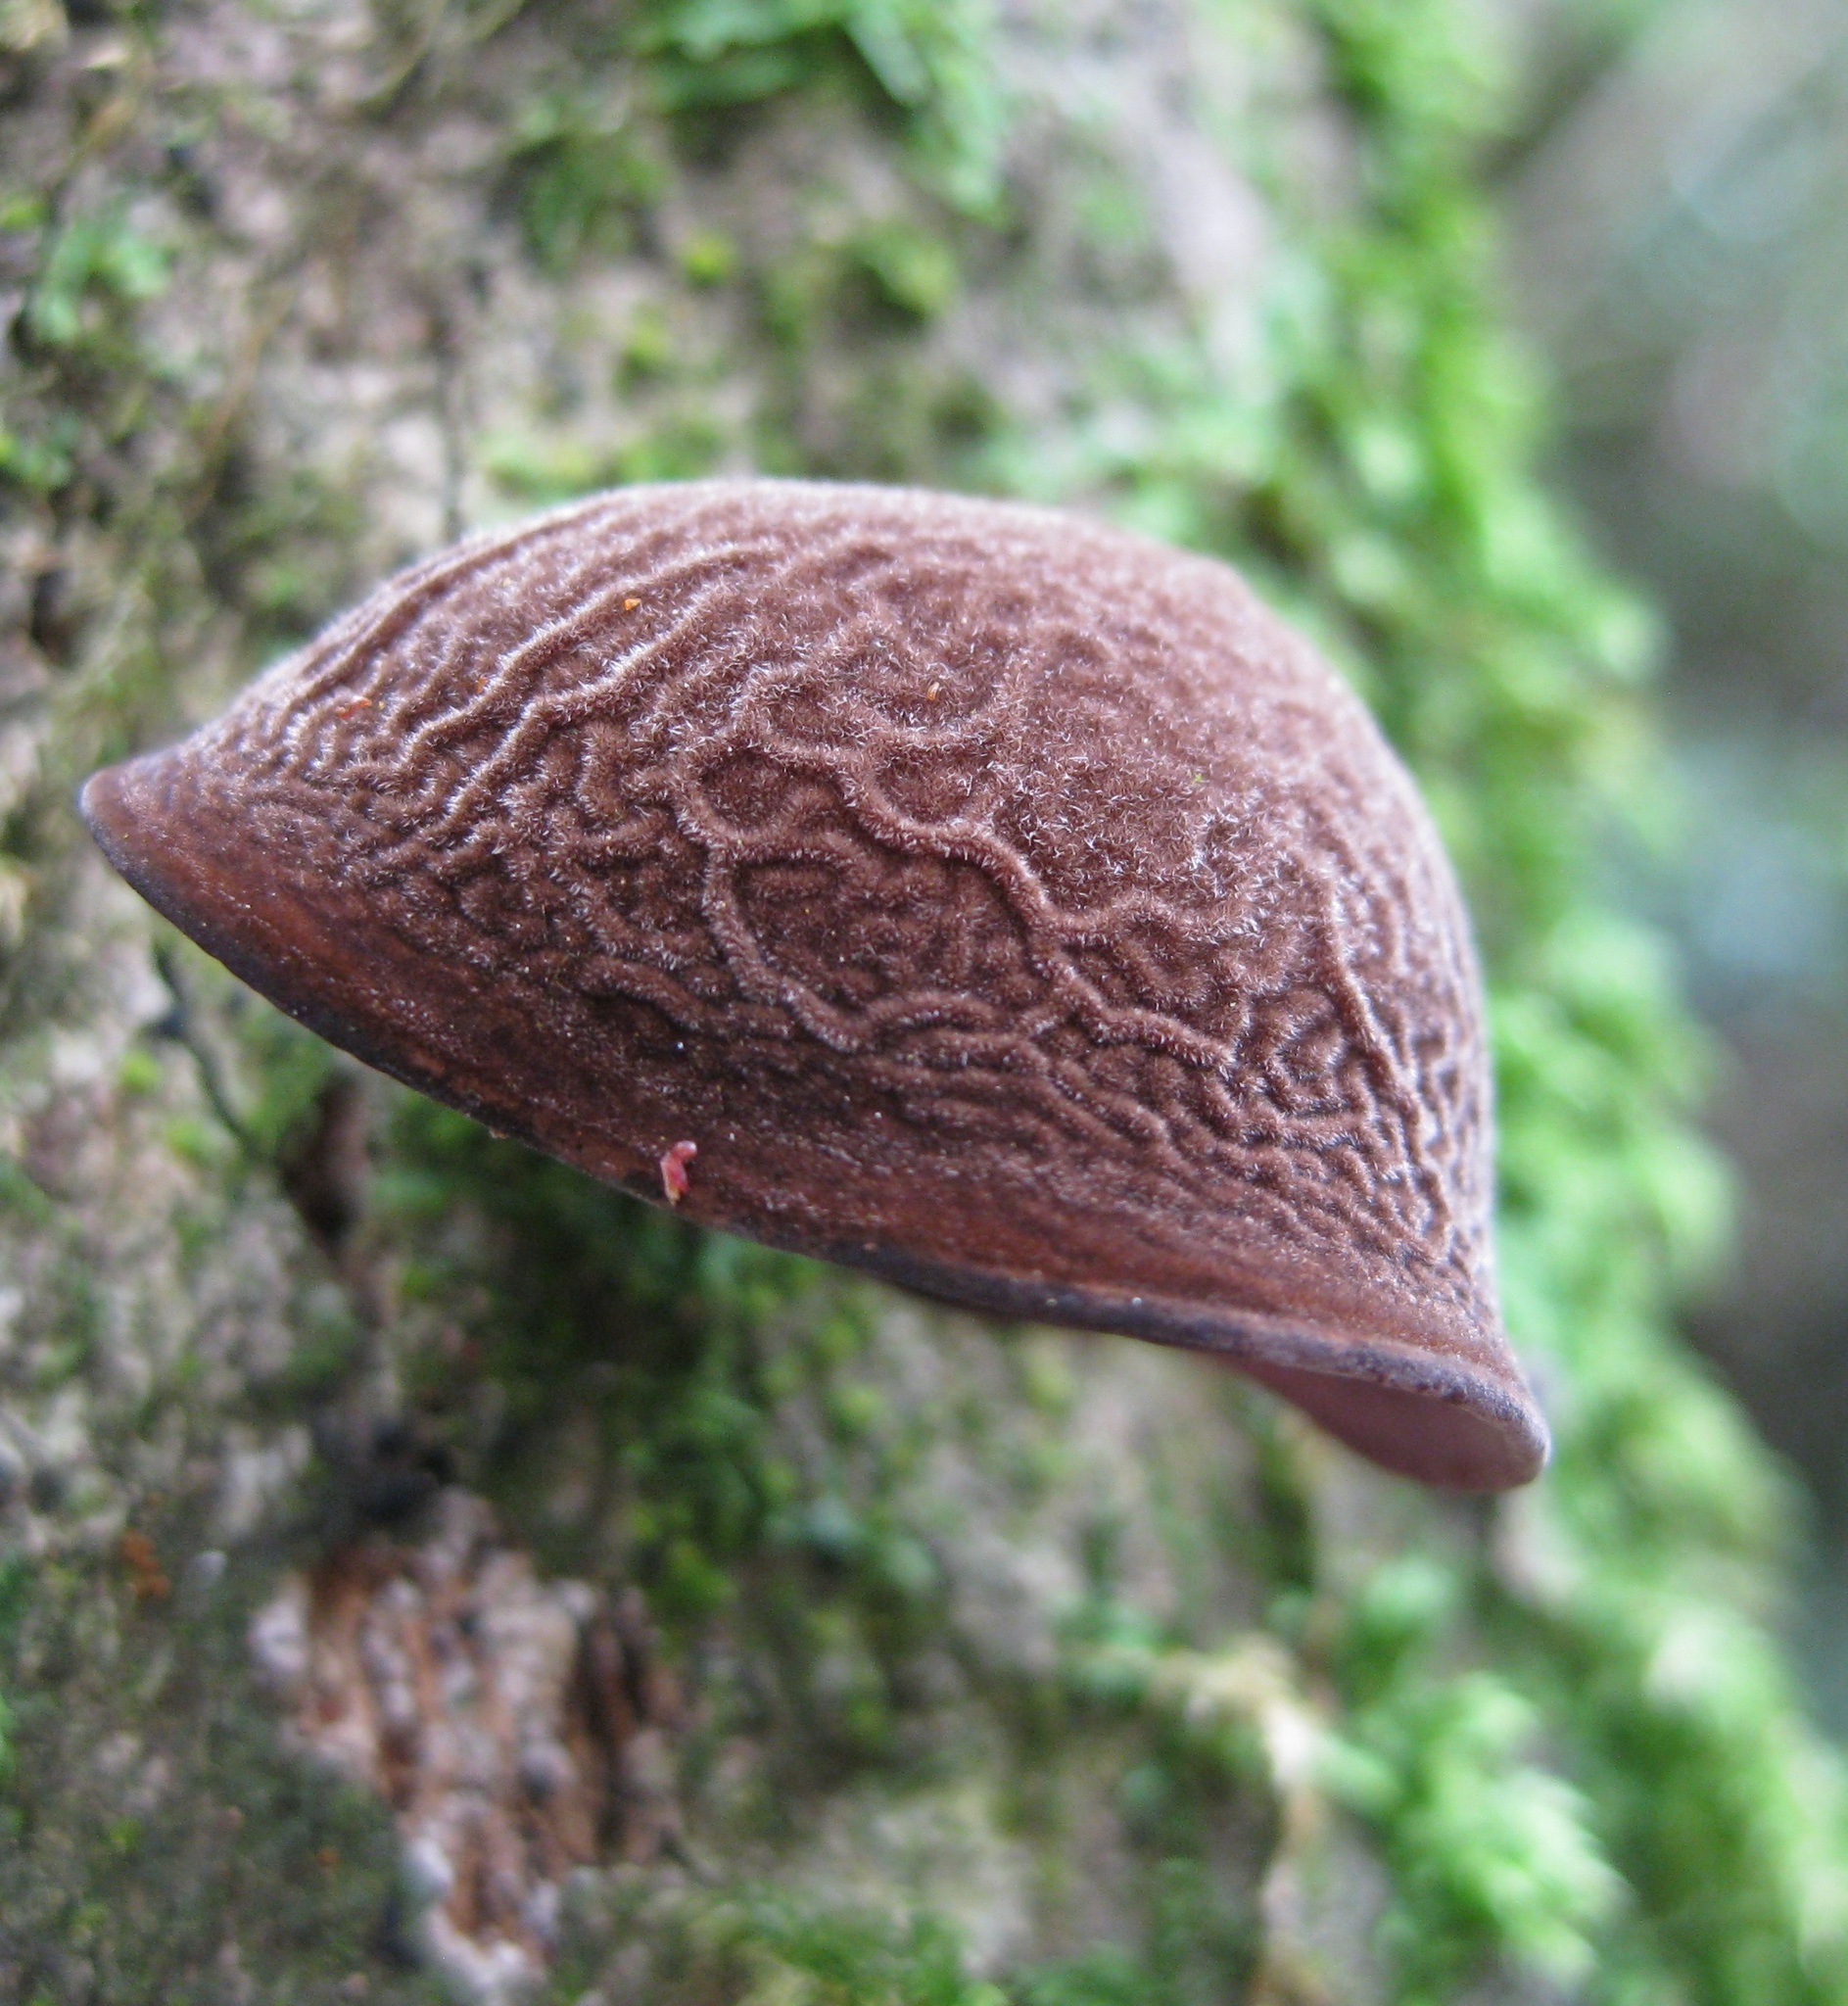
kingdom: Fungi
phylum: Basidiomycota
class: Agaricomycetes
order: Auriculariales
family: Auriculariaceae
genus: Auricularia
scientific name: Auricularia cornea
